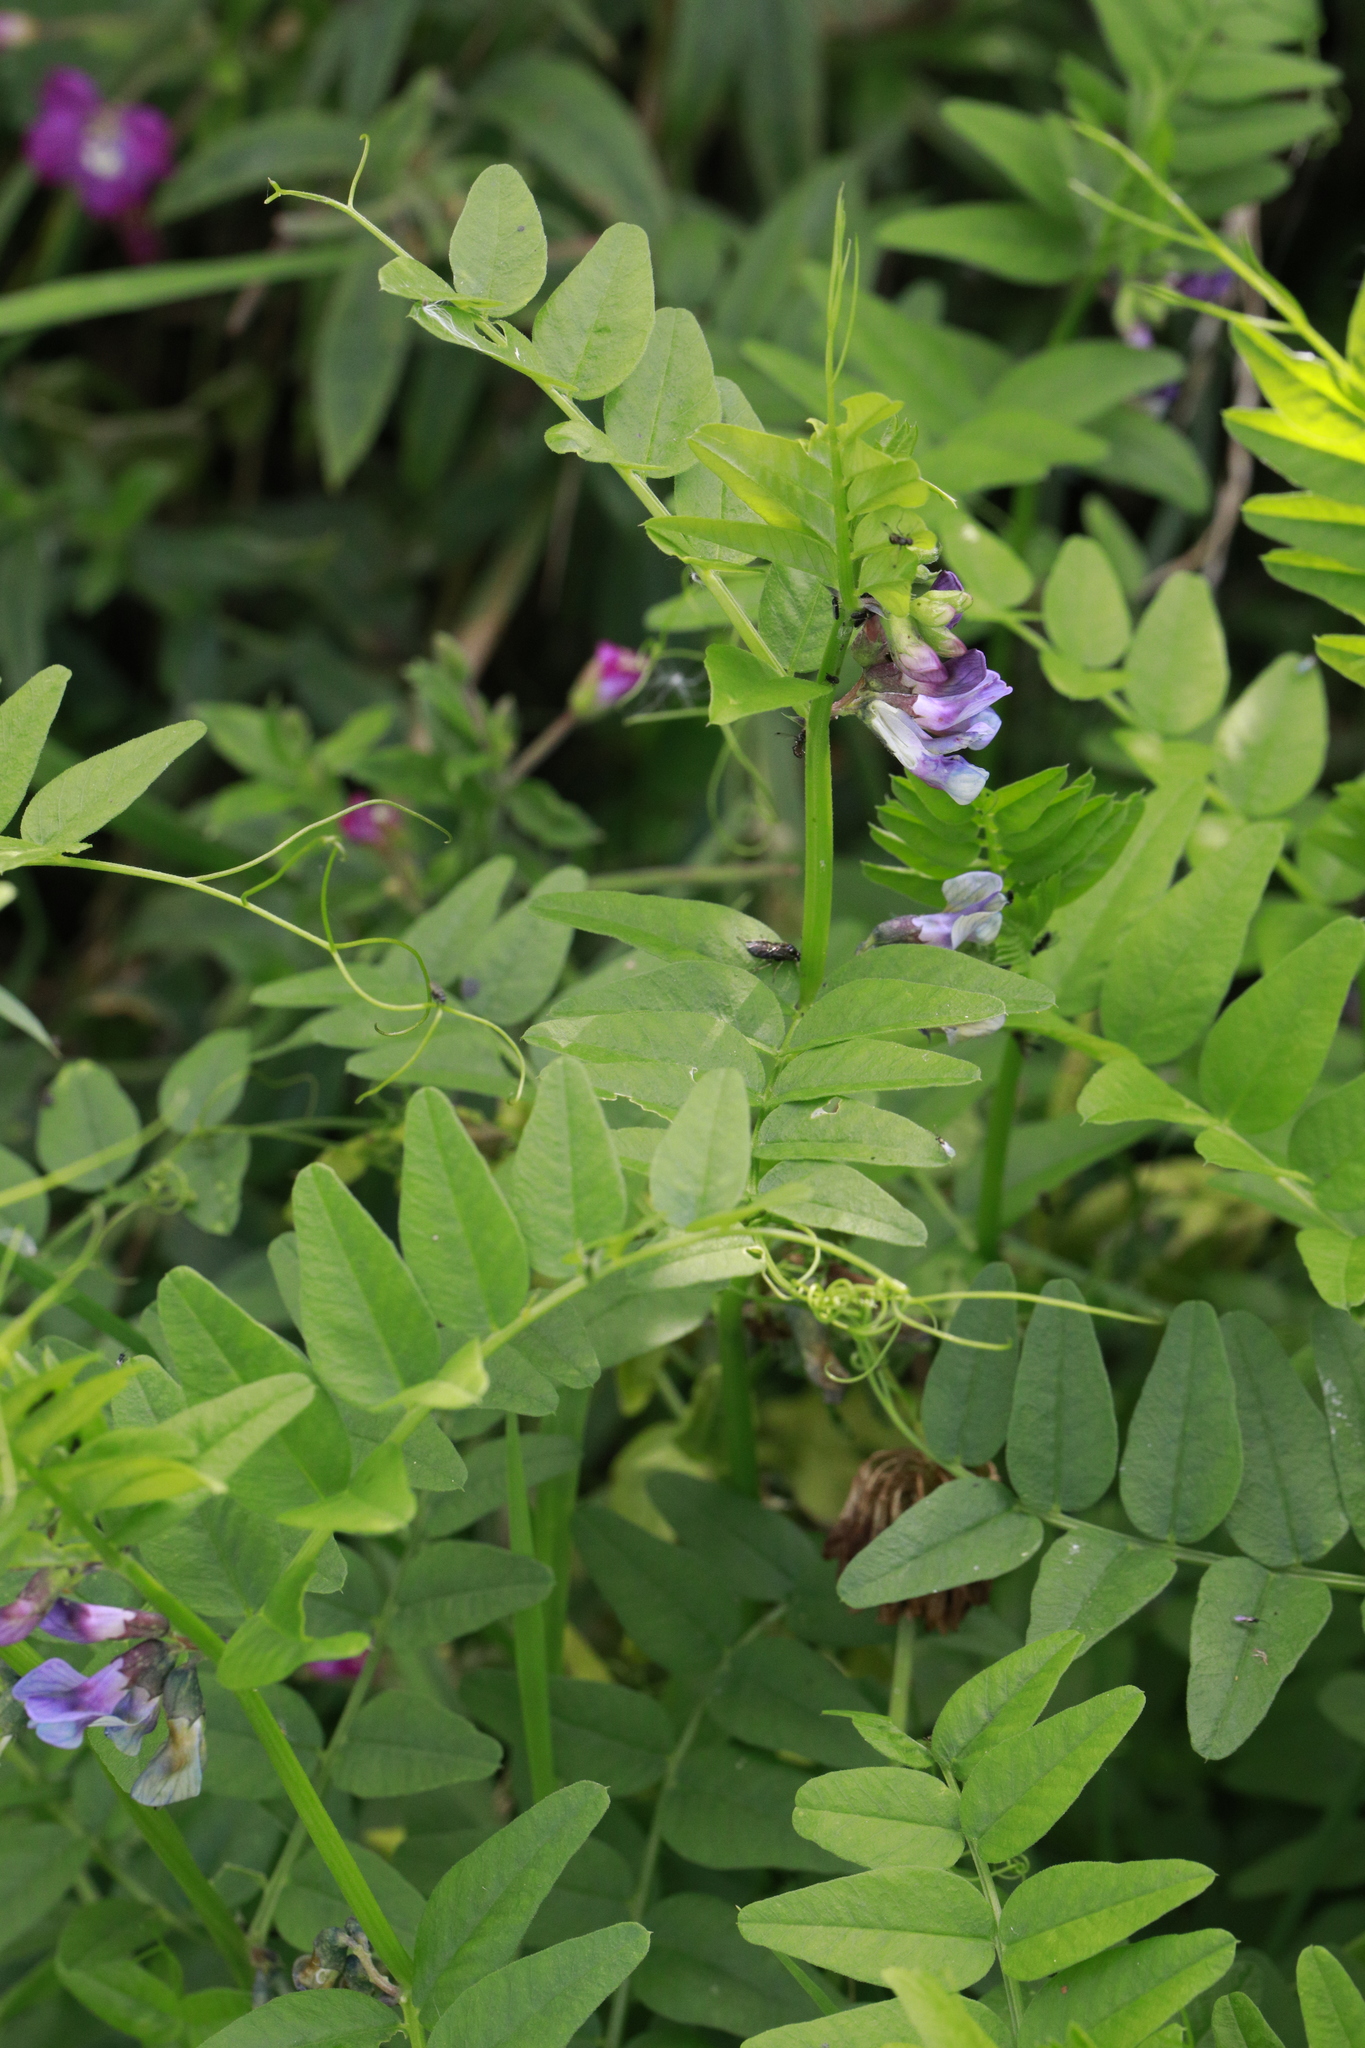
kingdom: Plantae
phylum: Tracheophyta
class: Magnoliopsida
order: Fabales
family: Fabaceae
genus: Vicia
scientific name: Vicia sepium
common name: Bush vetch
